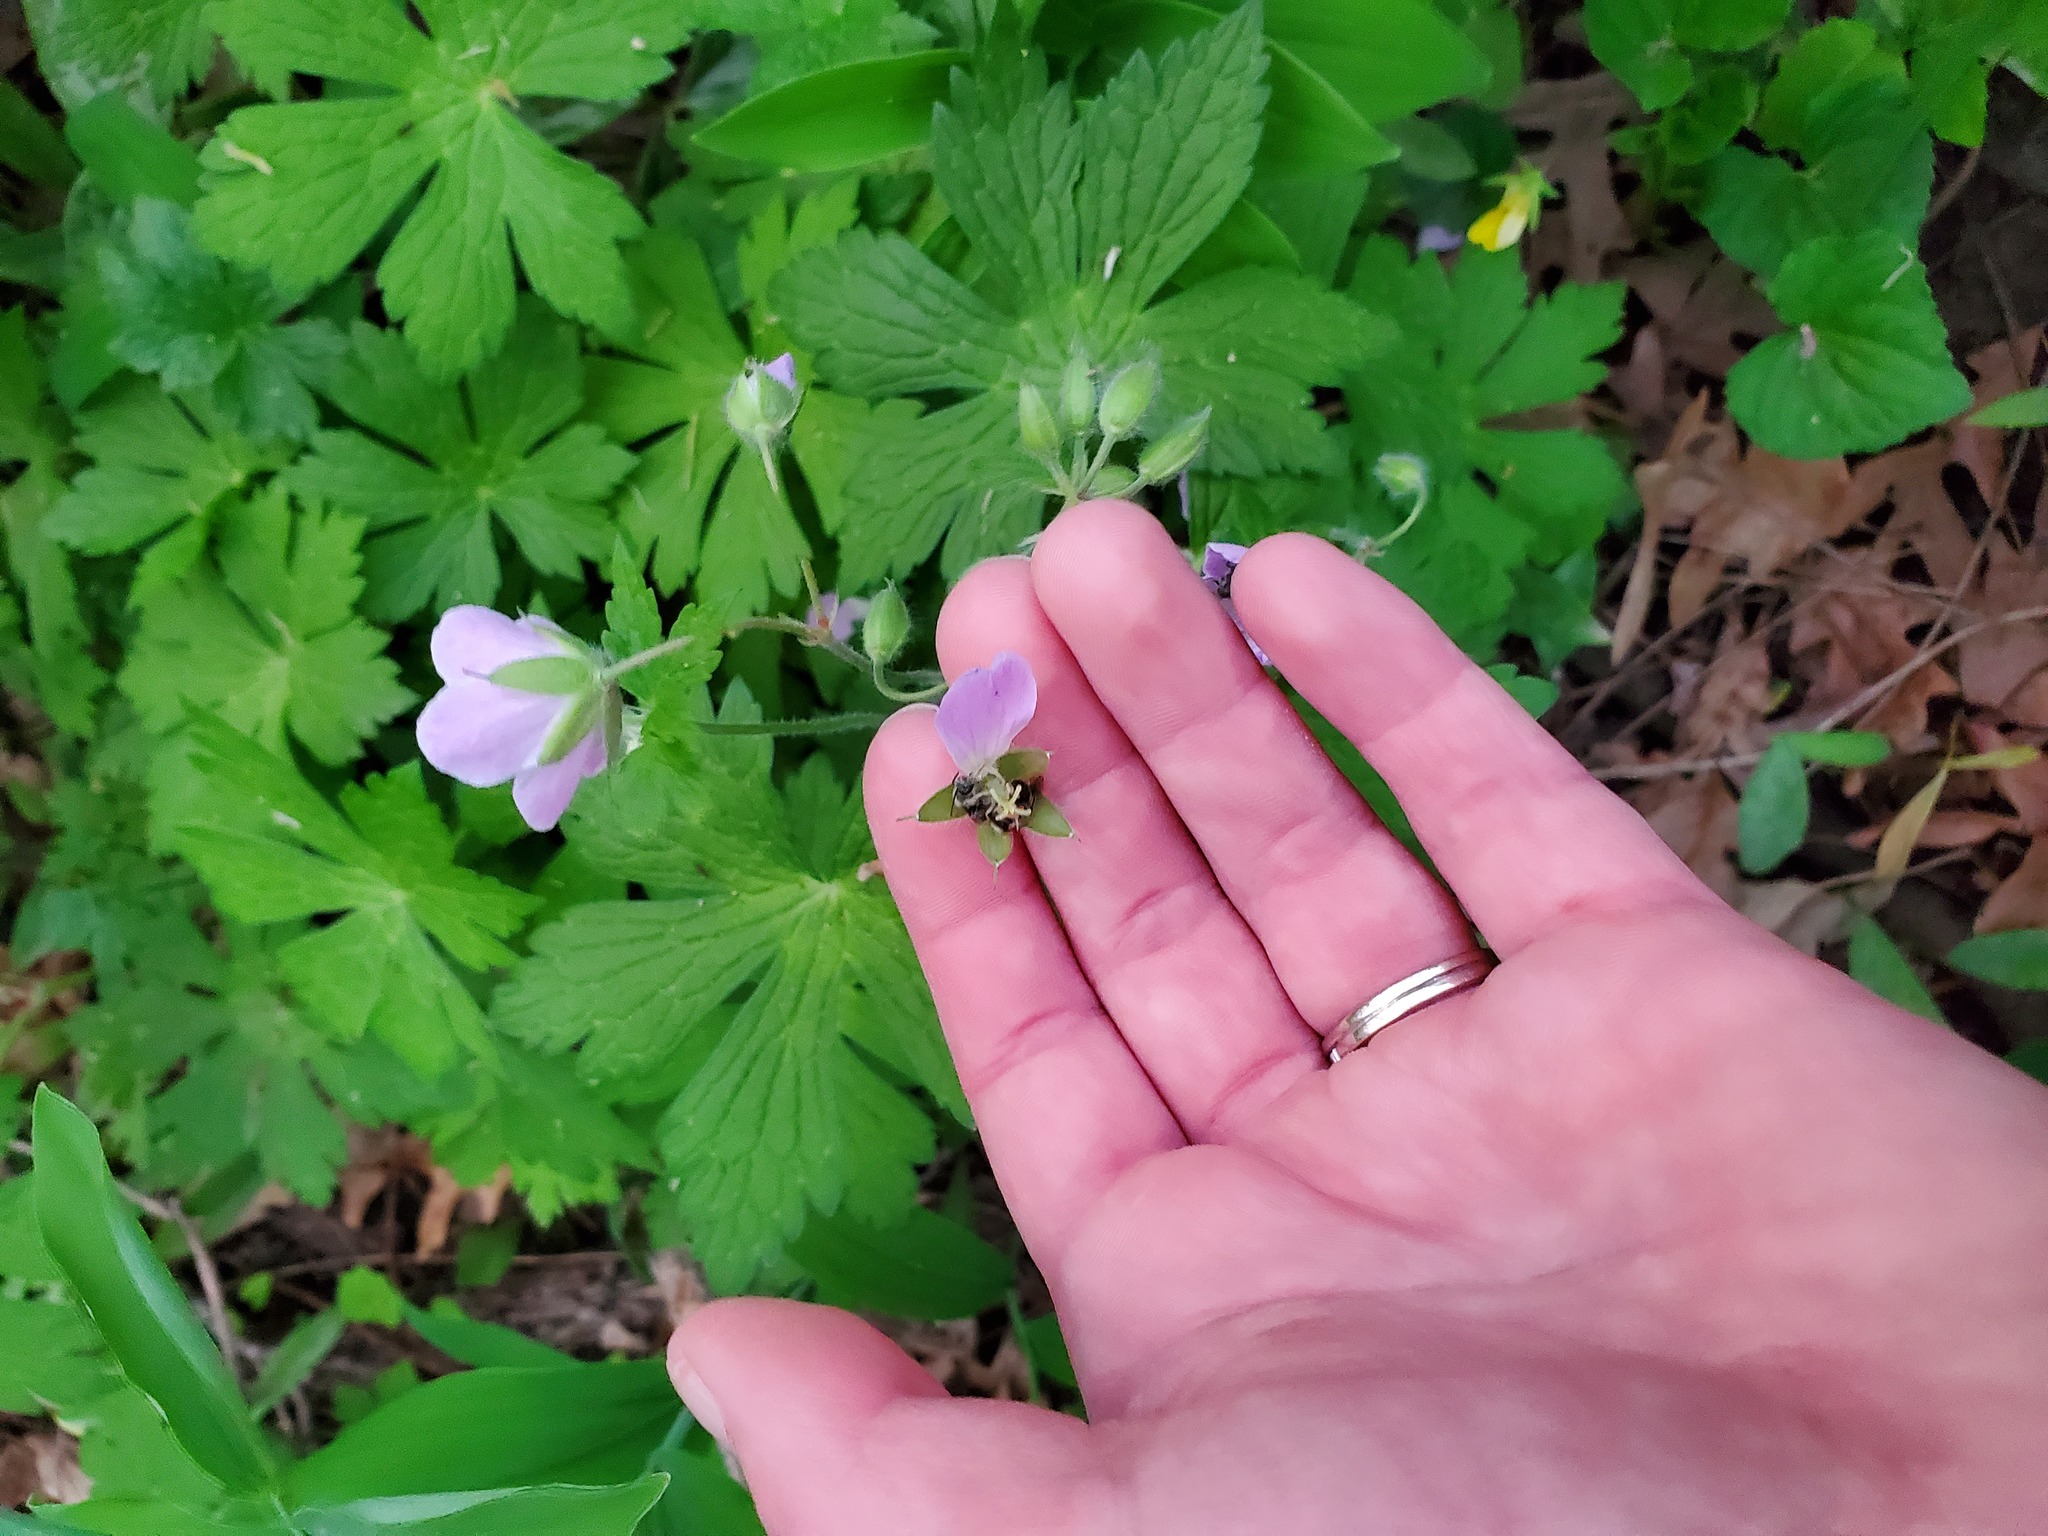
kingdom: Plantae
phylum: Tracheophyta
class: Magnoliopsida
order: Geraniales
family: Geraniaceae
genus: Geranium
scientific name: Geranium maculatum
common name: Spotted geranium
